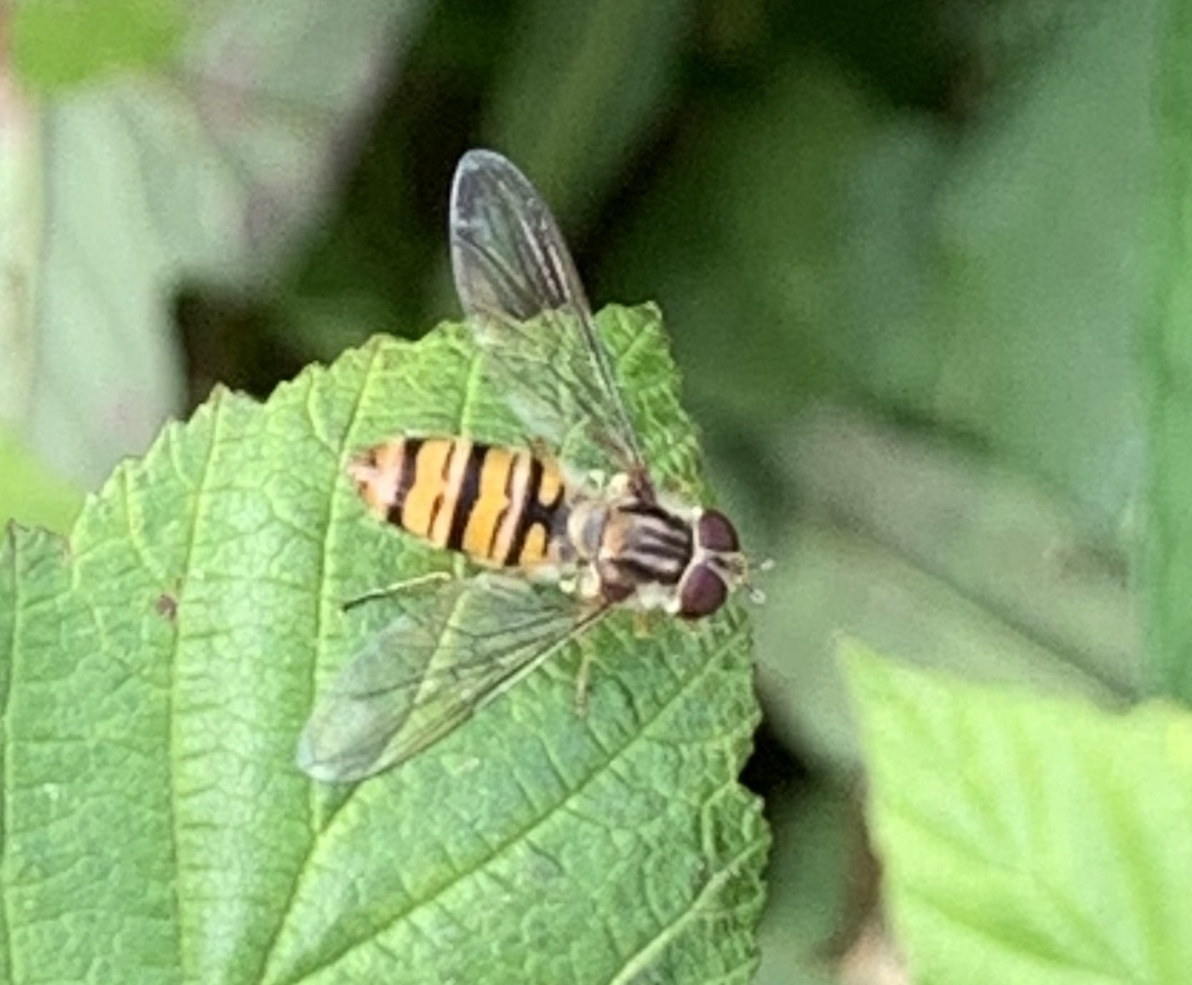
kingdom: Animalia
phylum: Arthropoda
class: Insecta
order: Diptera
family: Syrphidae
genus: Episyrphus
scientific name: Episyrphus balteatus
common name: Marmalade hoverfly
